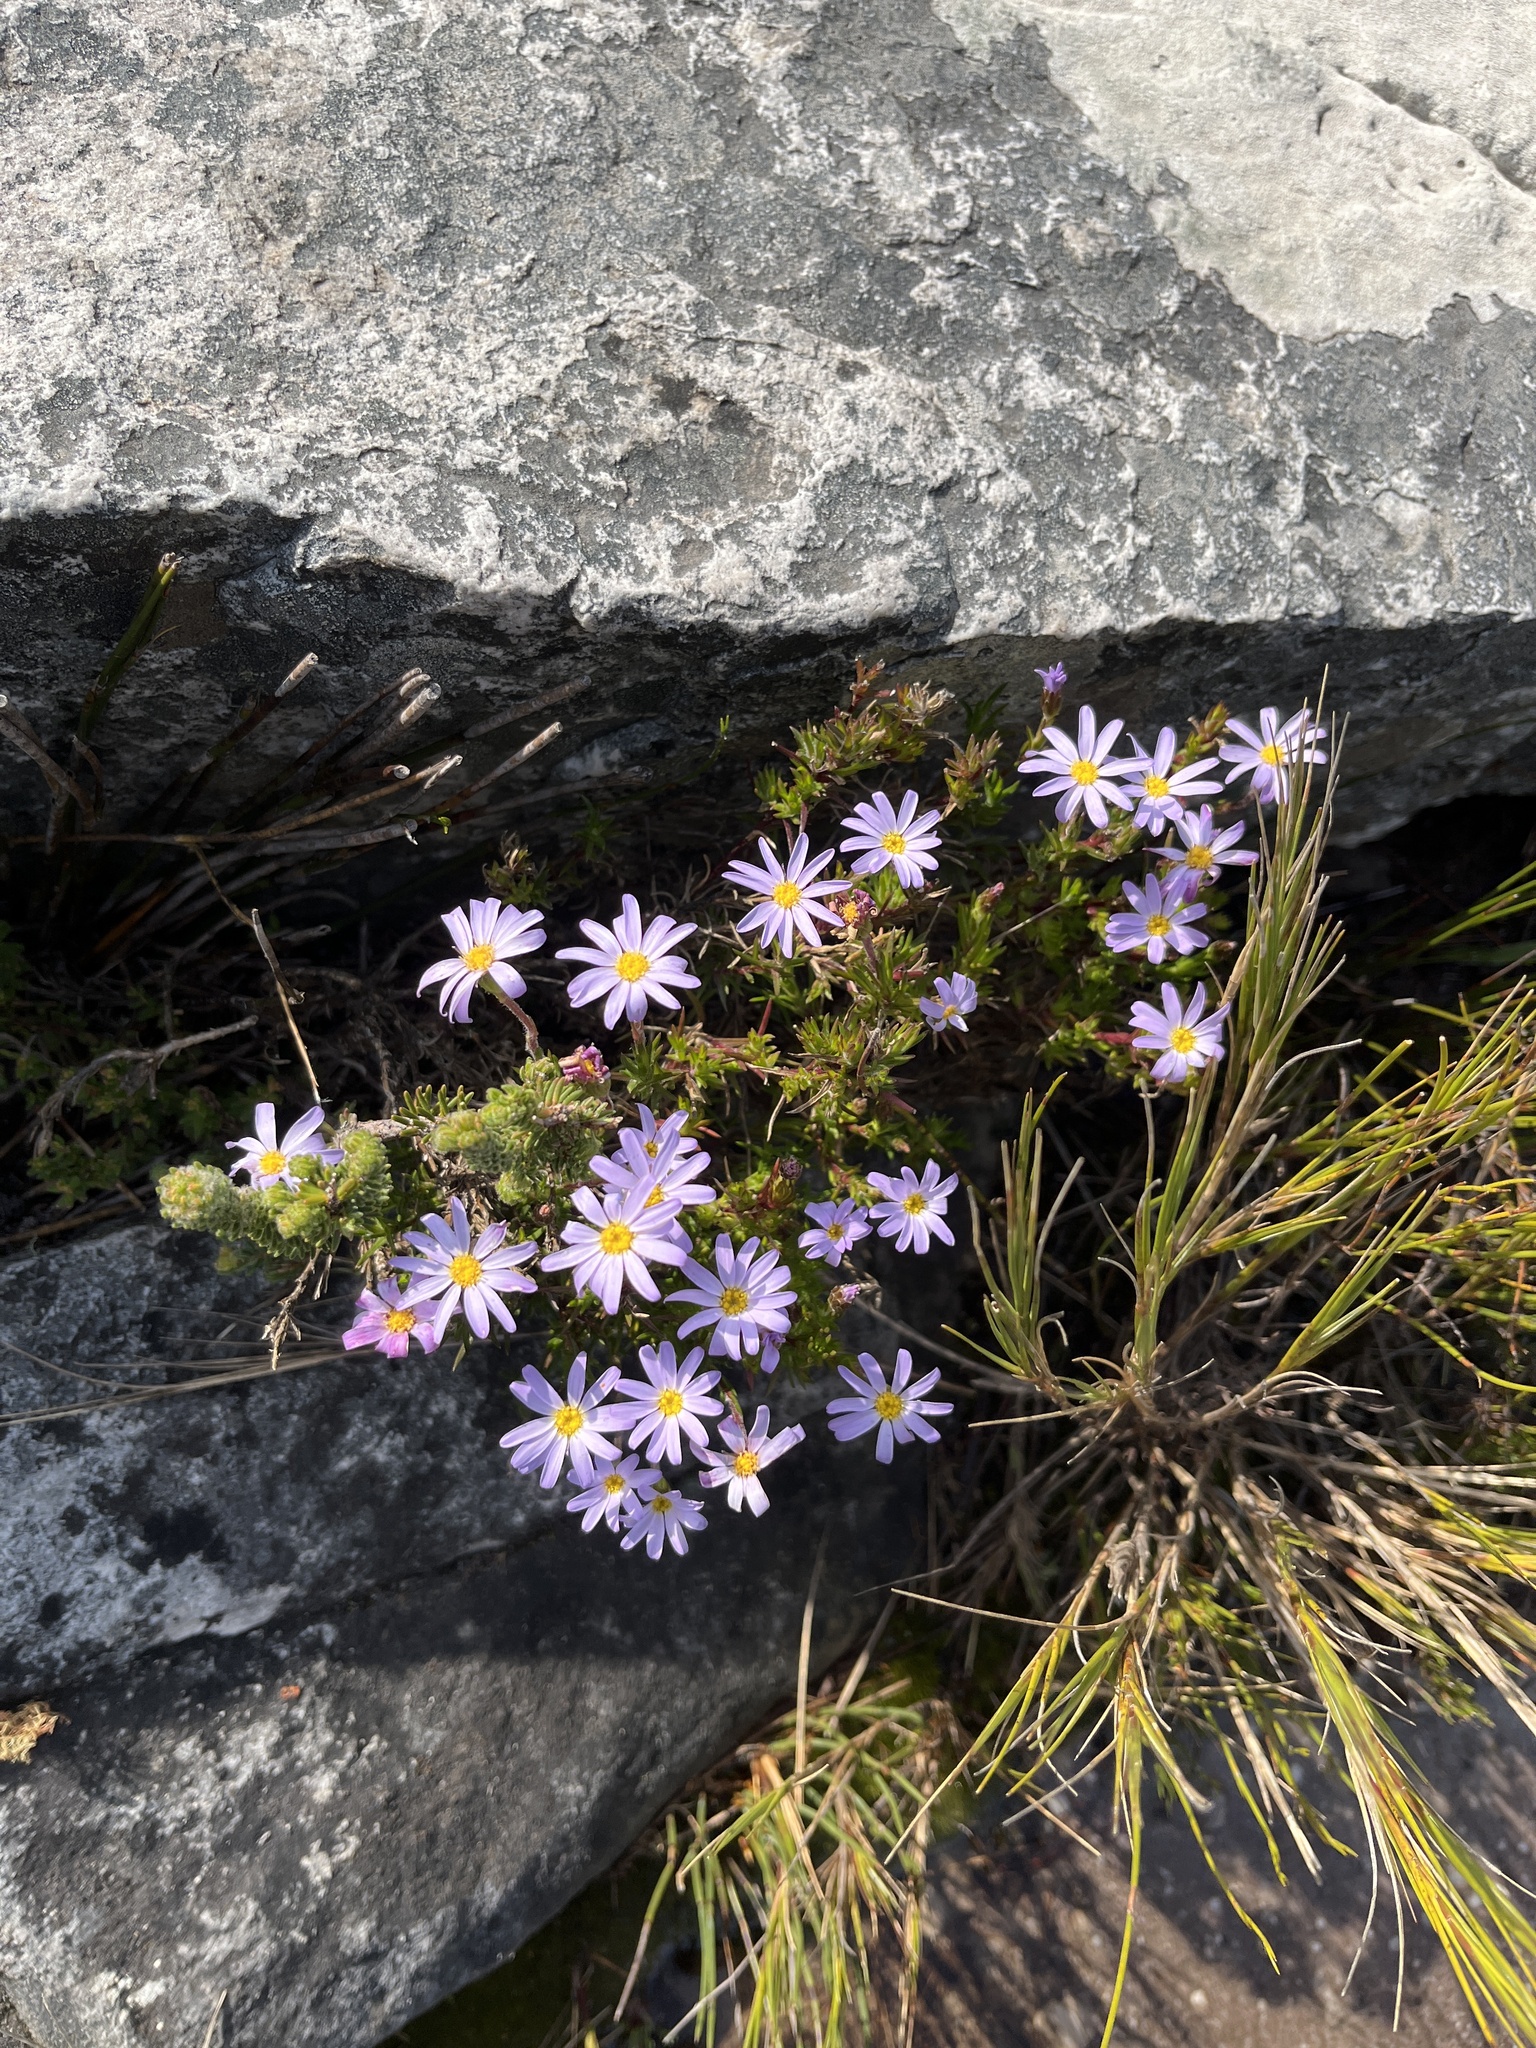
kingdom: Plantae
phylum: Tracheophyta
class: Magnoliopsida
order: Asterales
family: Asteraceae
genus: Zyrphelis
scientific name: Zyrphelis taxifolia
